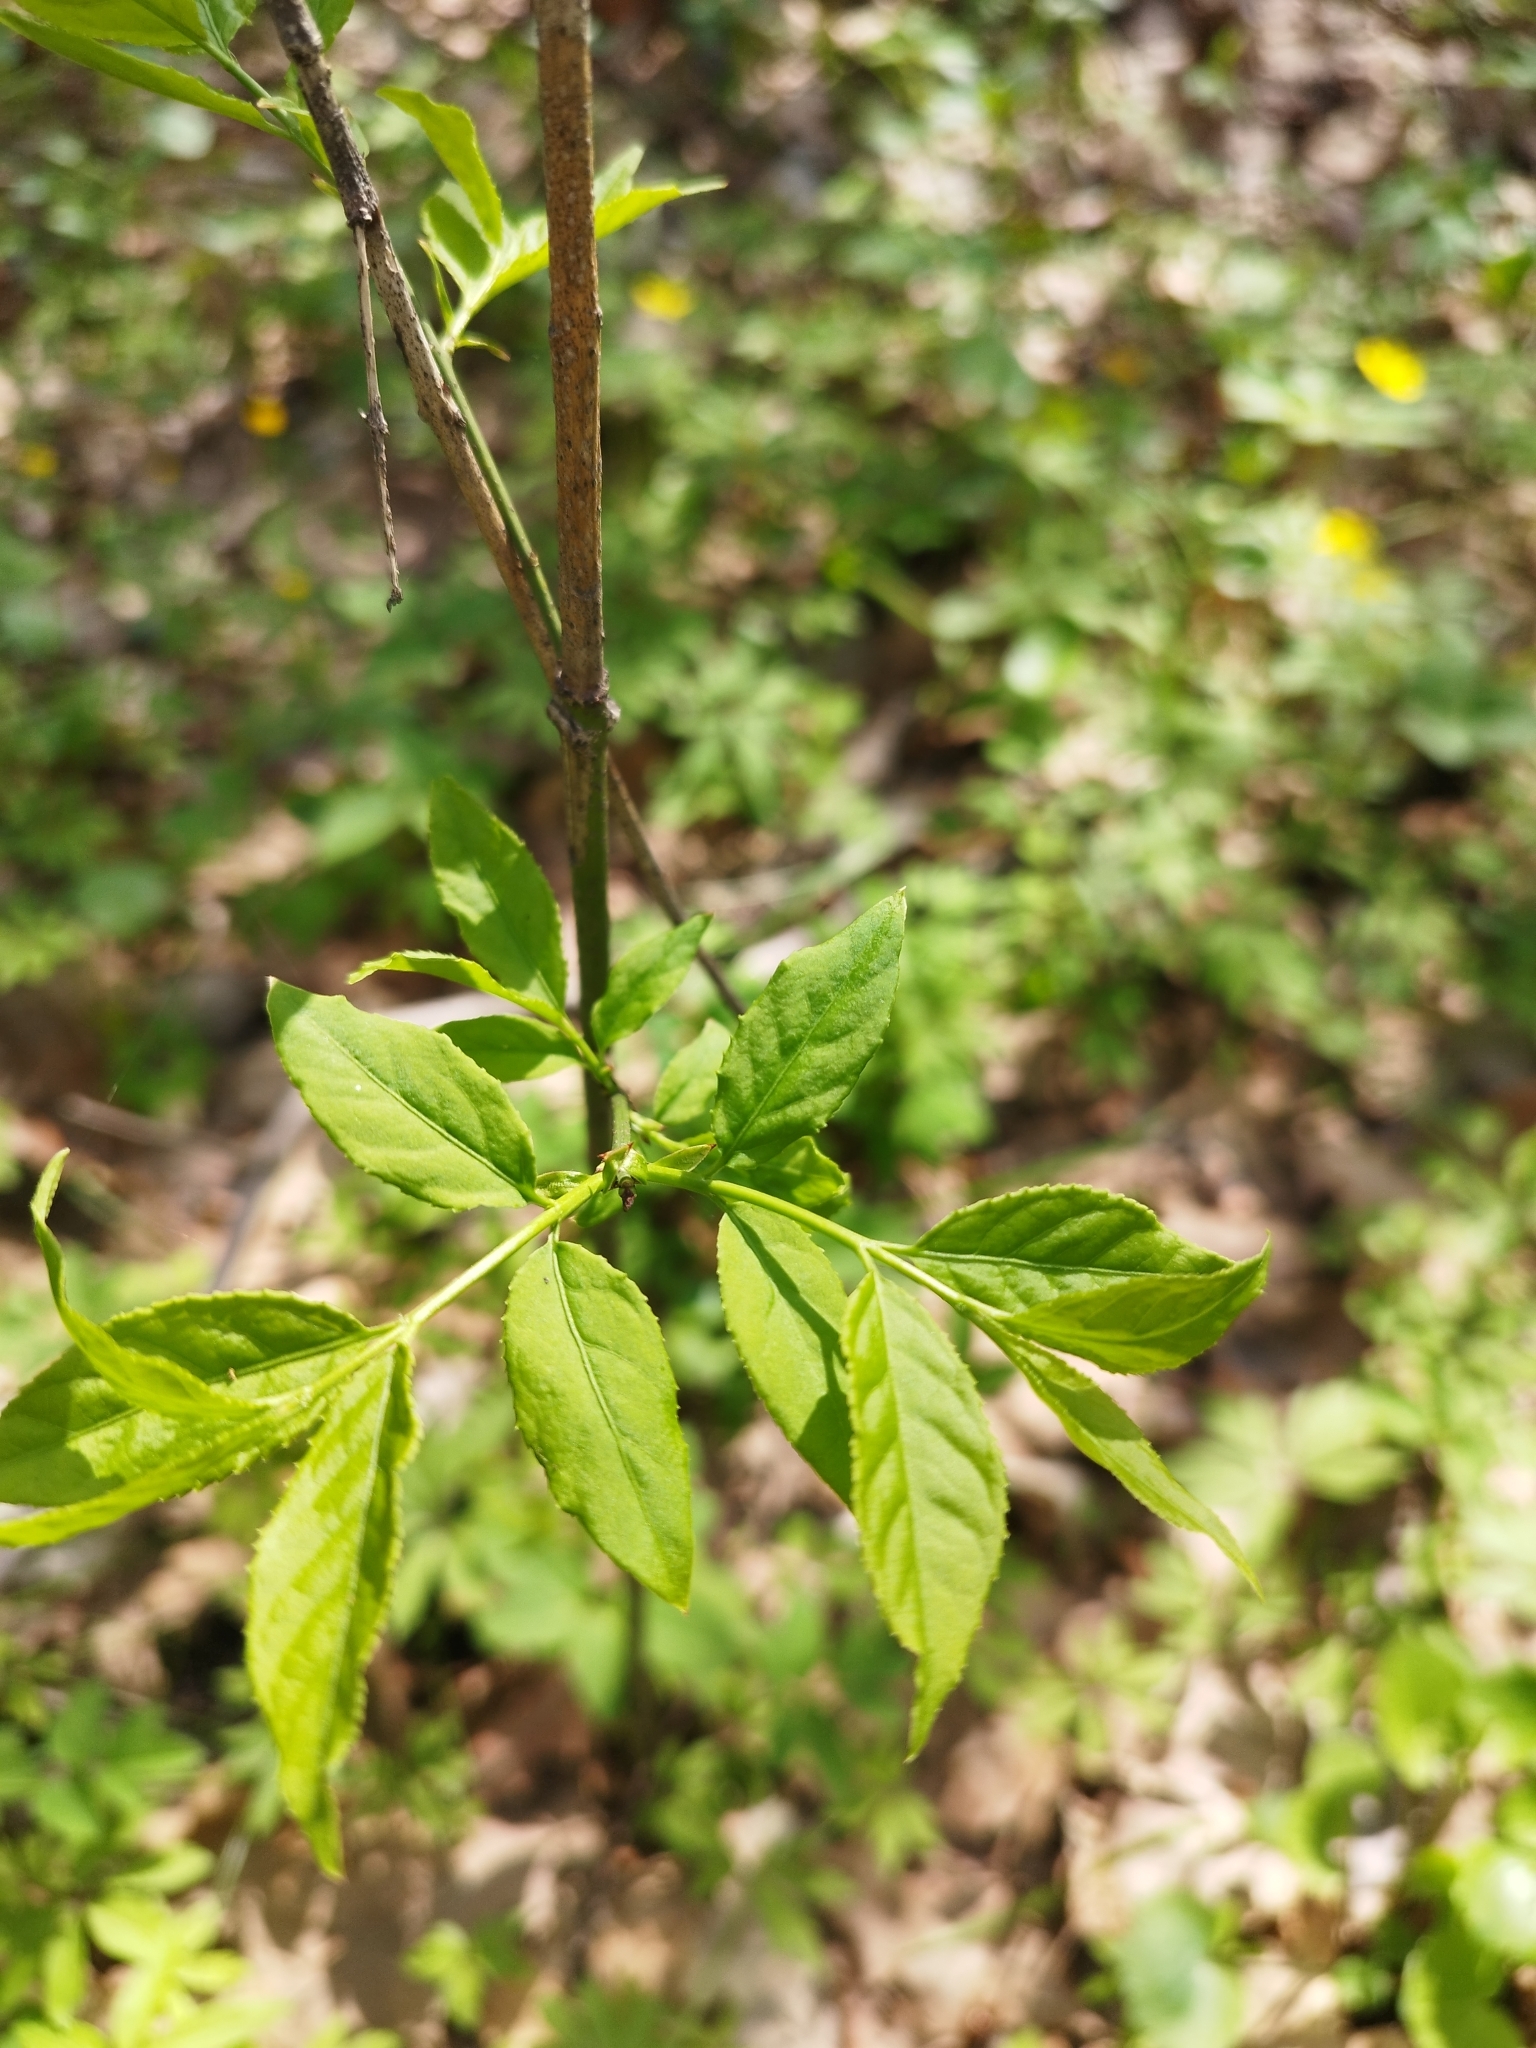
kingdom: Plantae
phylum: Tracheophyta
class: Magnoliopsida
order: Celastrales
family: Celastraceae
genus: Euonymus
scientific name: Euonymus verrucosus
